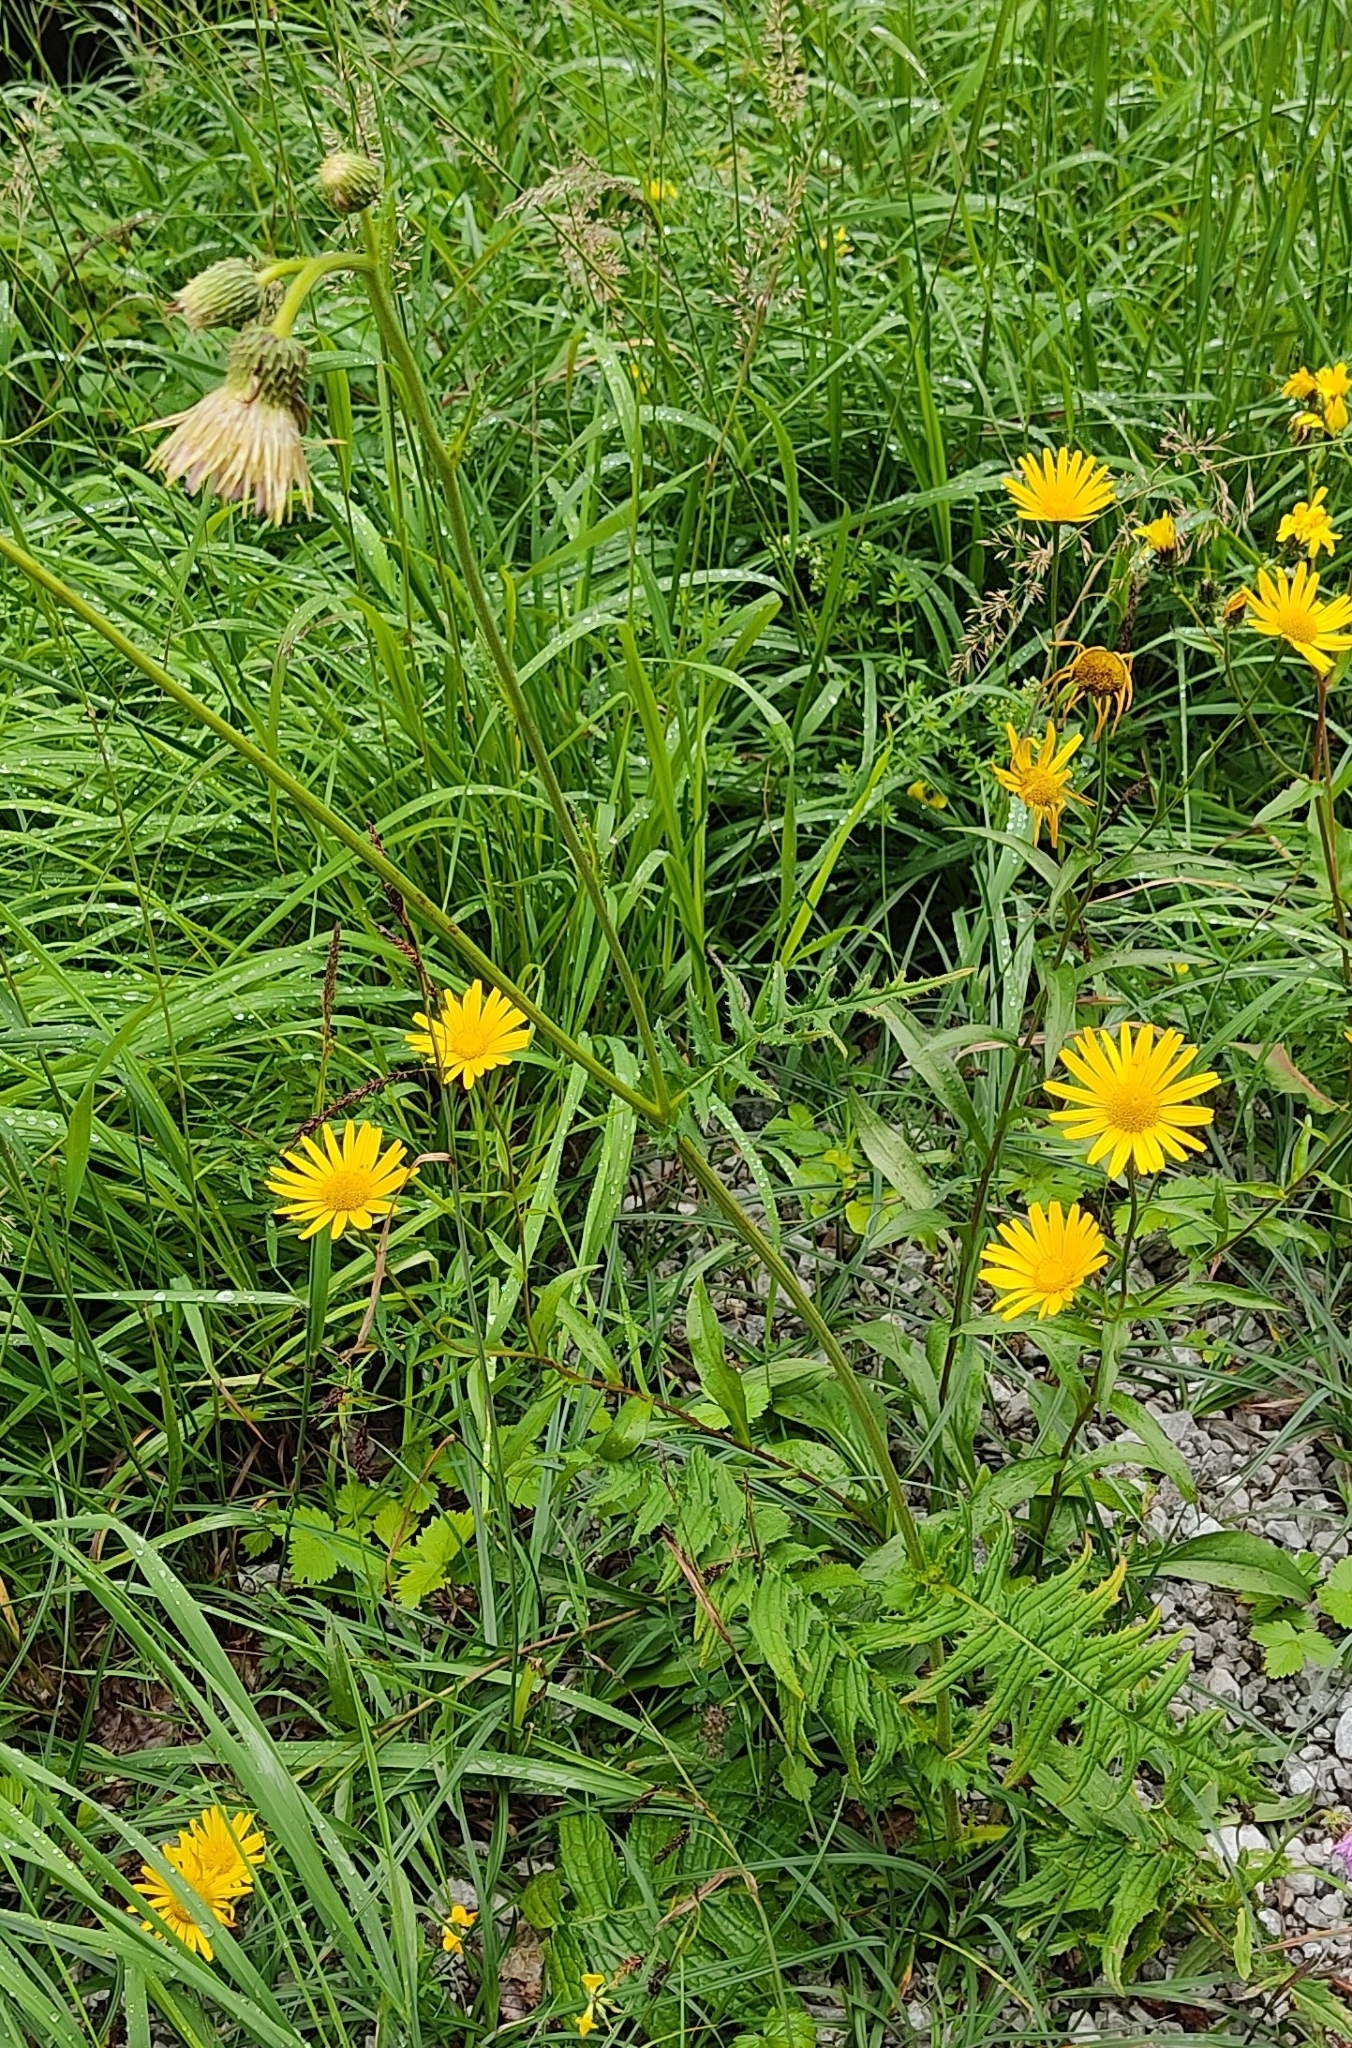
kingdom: Plantae
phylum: Tracheophyta
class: Magnoliopsida
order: Asterales
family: Asteraceae
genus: Cirsium
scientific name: Cirsium erisithales
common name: Yellow thistle
